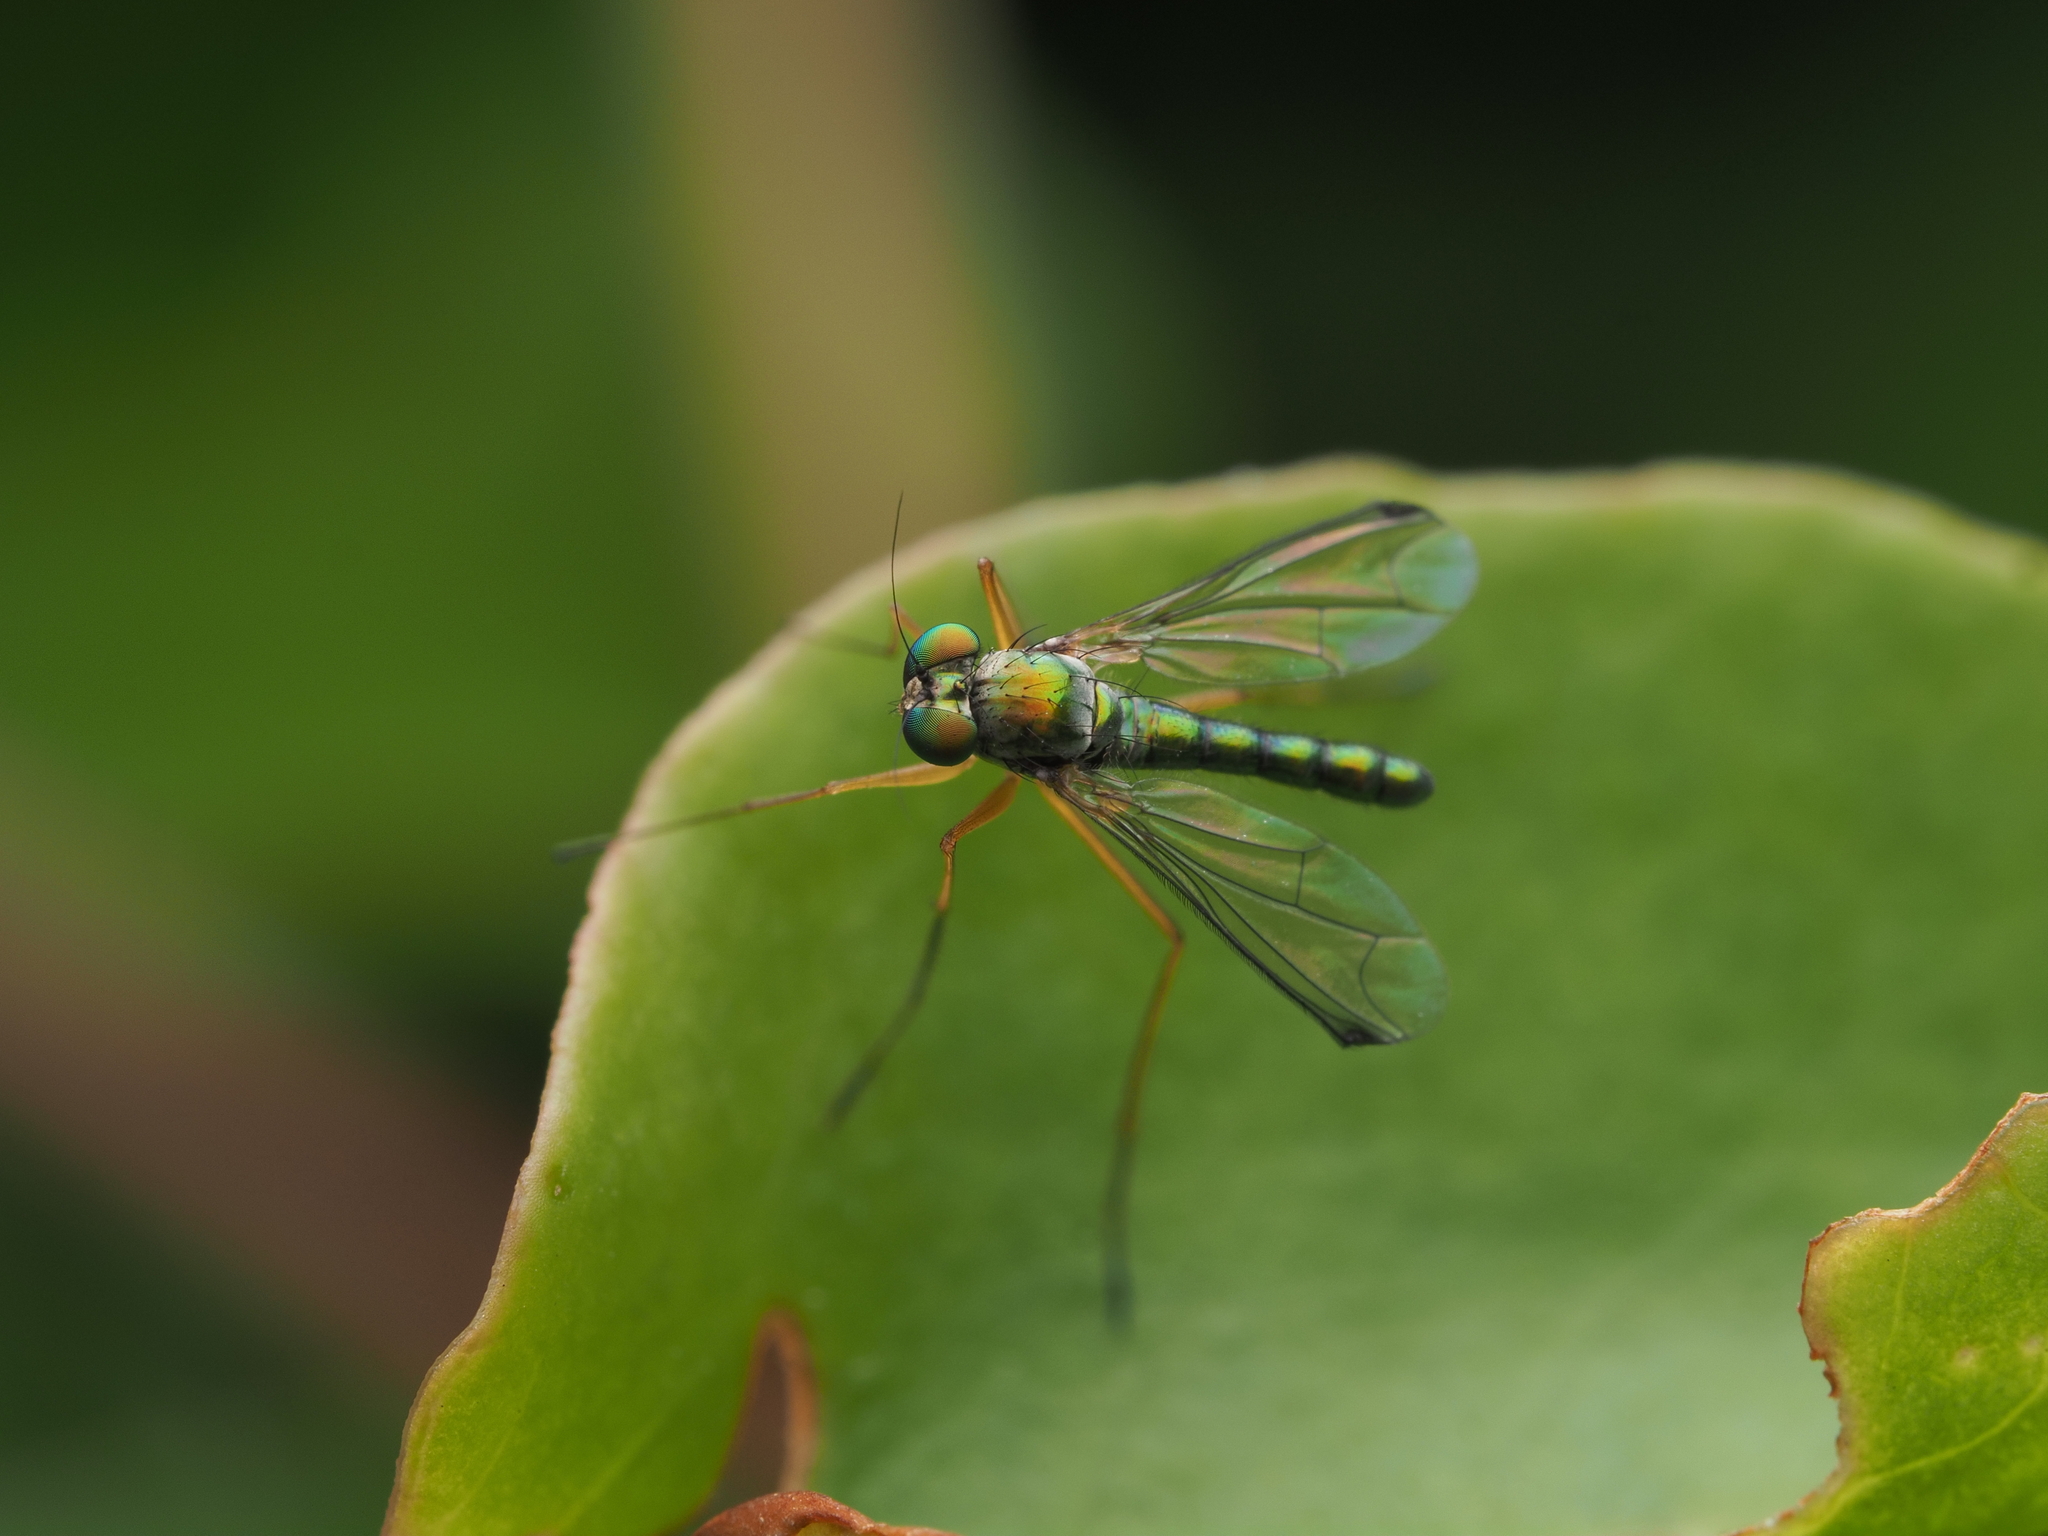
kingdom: Animalia
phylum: Arthropoda
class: Insecta
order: Diptera
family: Dolichopodidae
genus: Parentia
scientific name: Parentia anomalicosta
